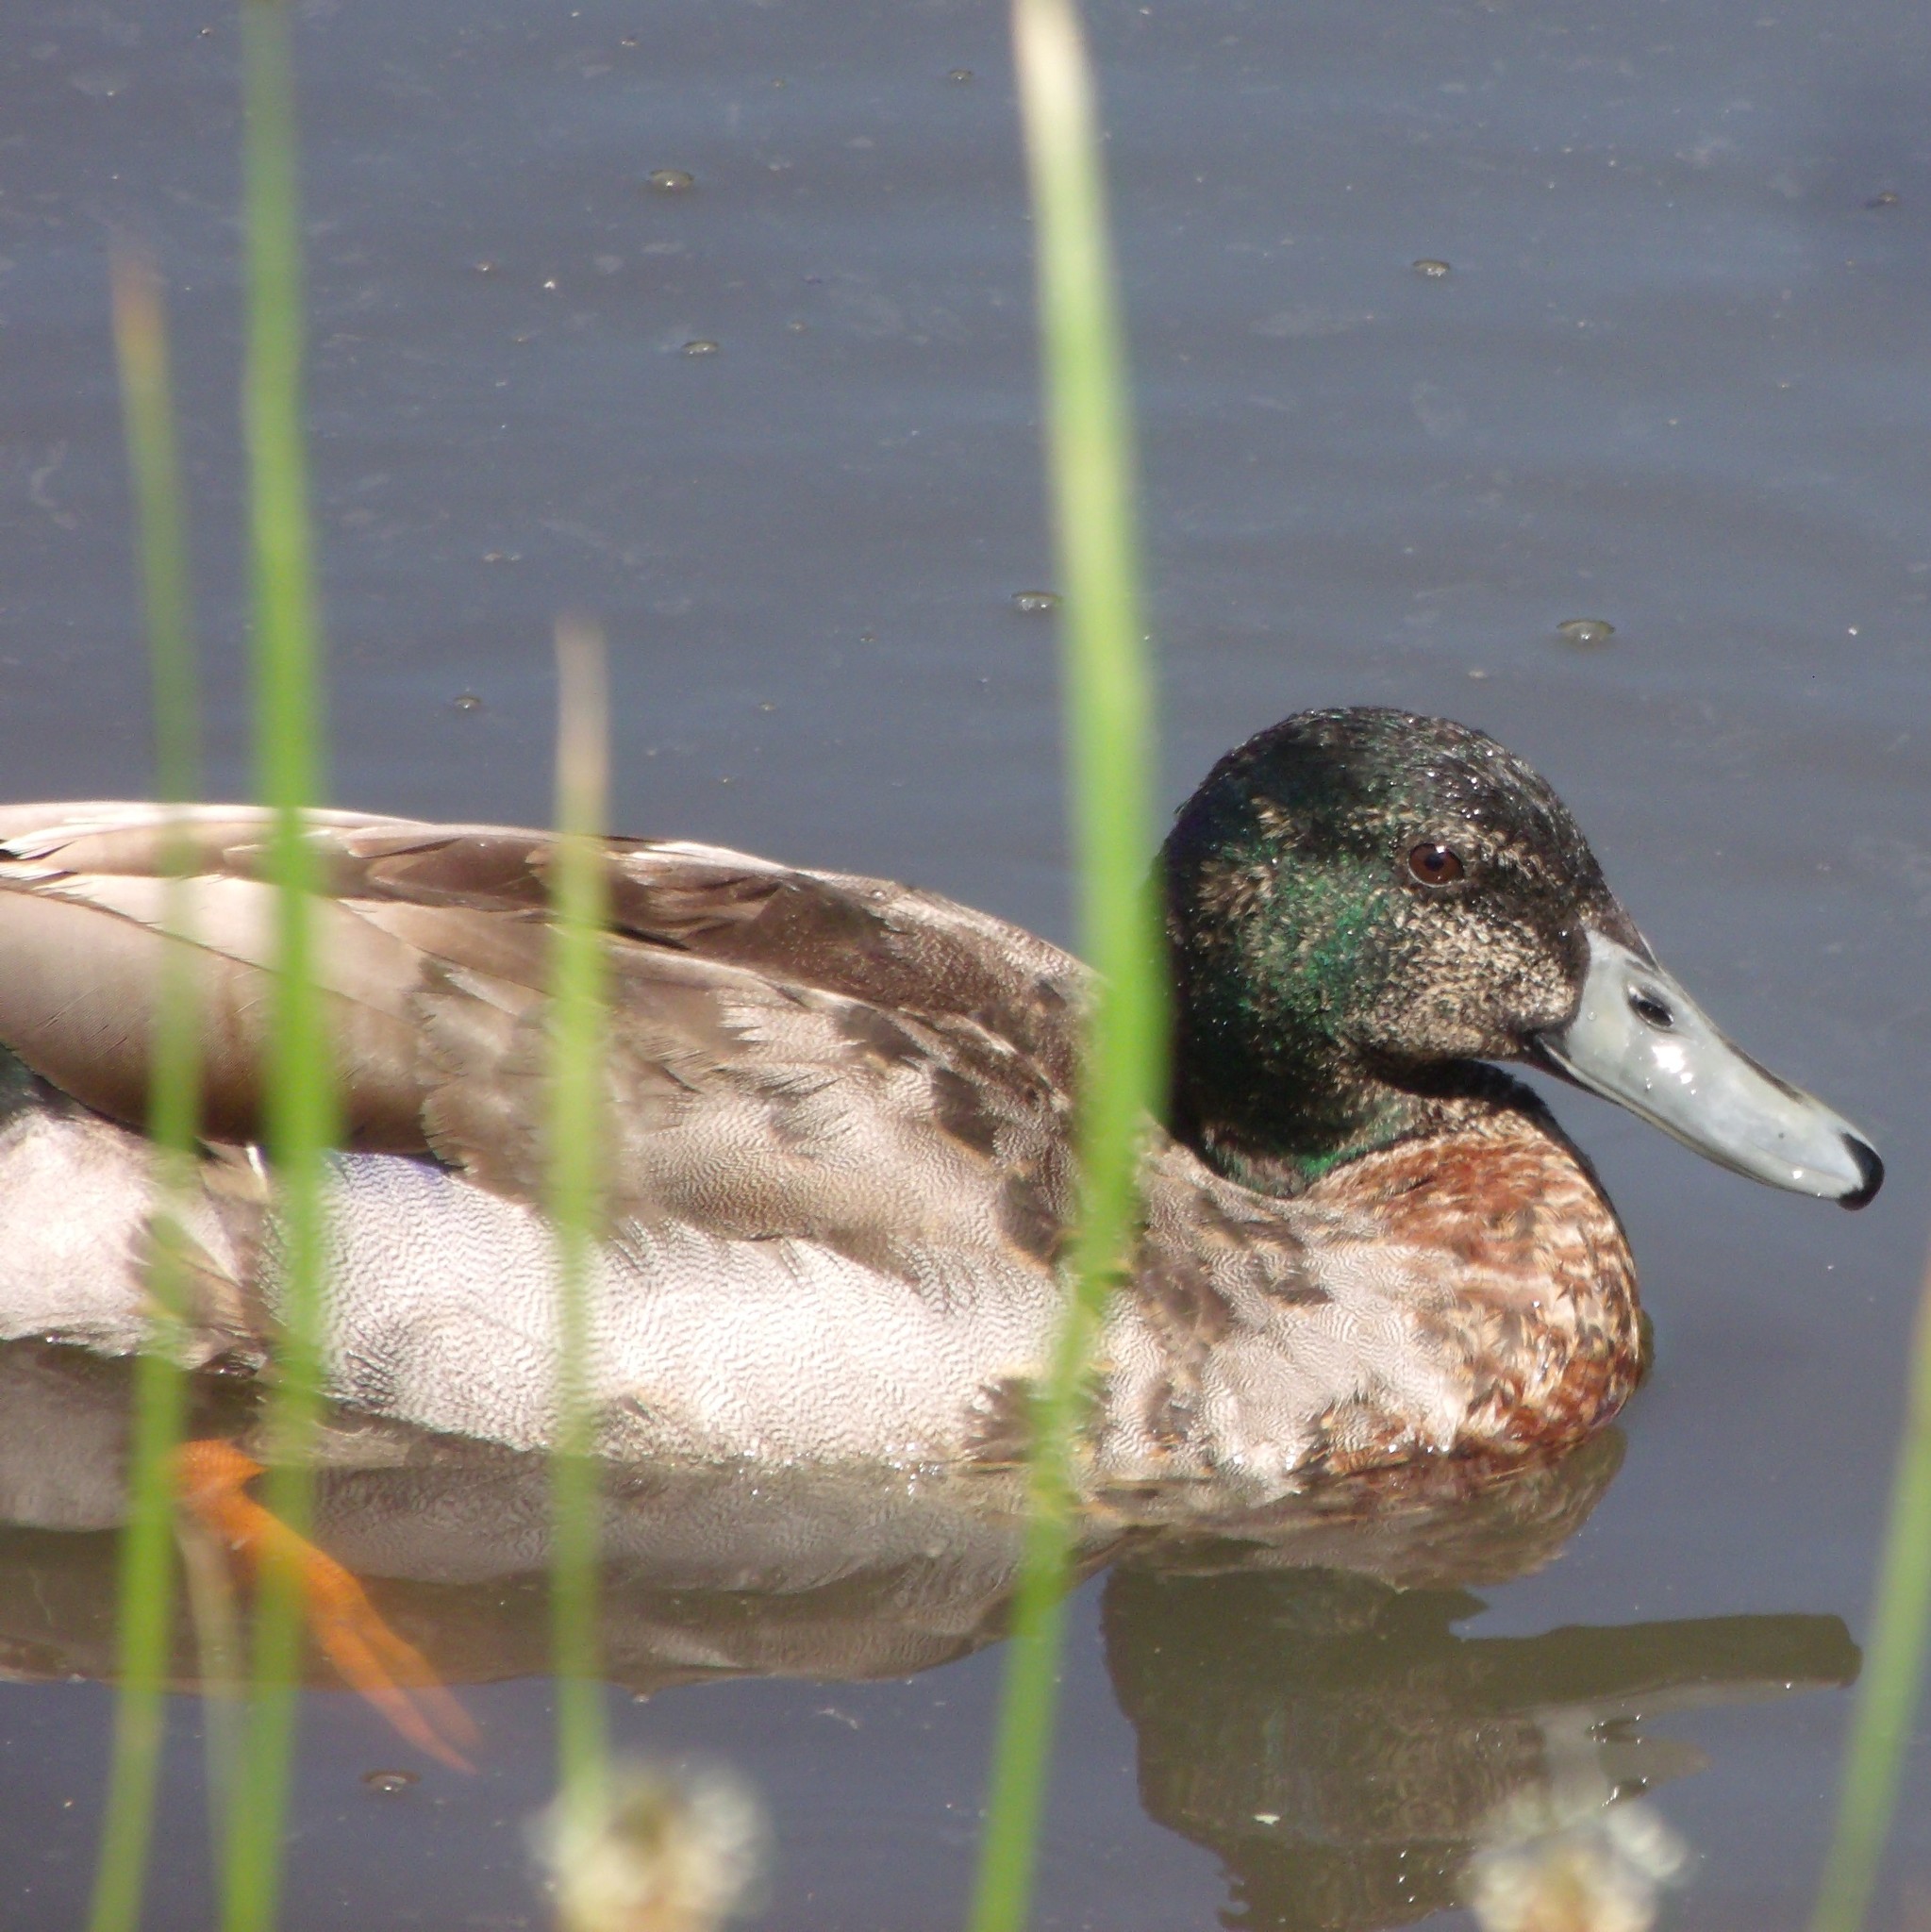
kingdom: Animalia
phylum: Chordata
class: Aves
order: Anseriformes
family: Anatidae
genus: Anas
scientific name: Anas platyrhynchos
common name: Mallard
